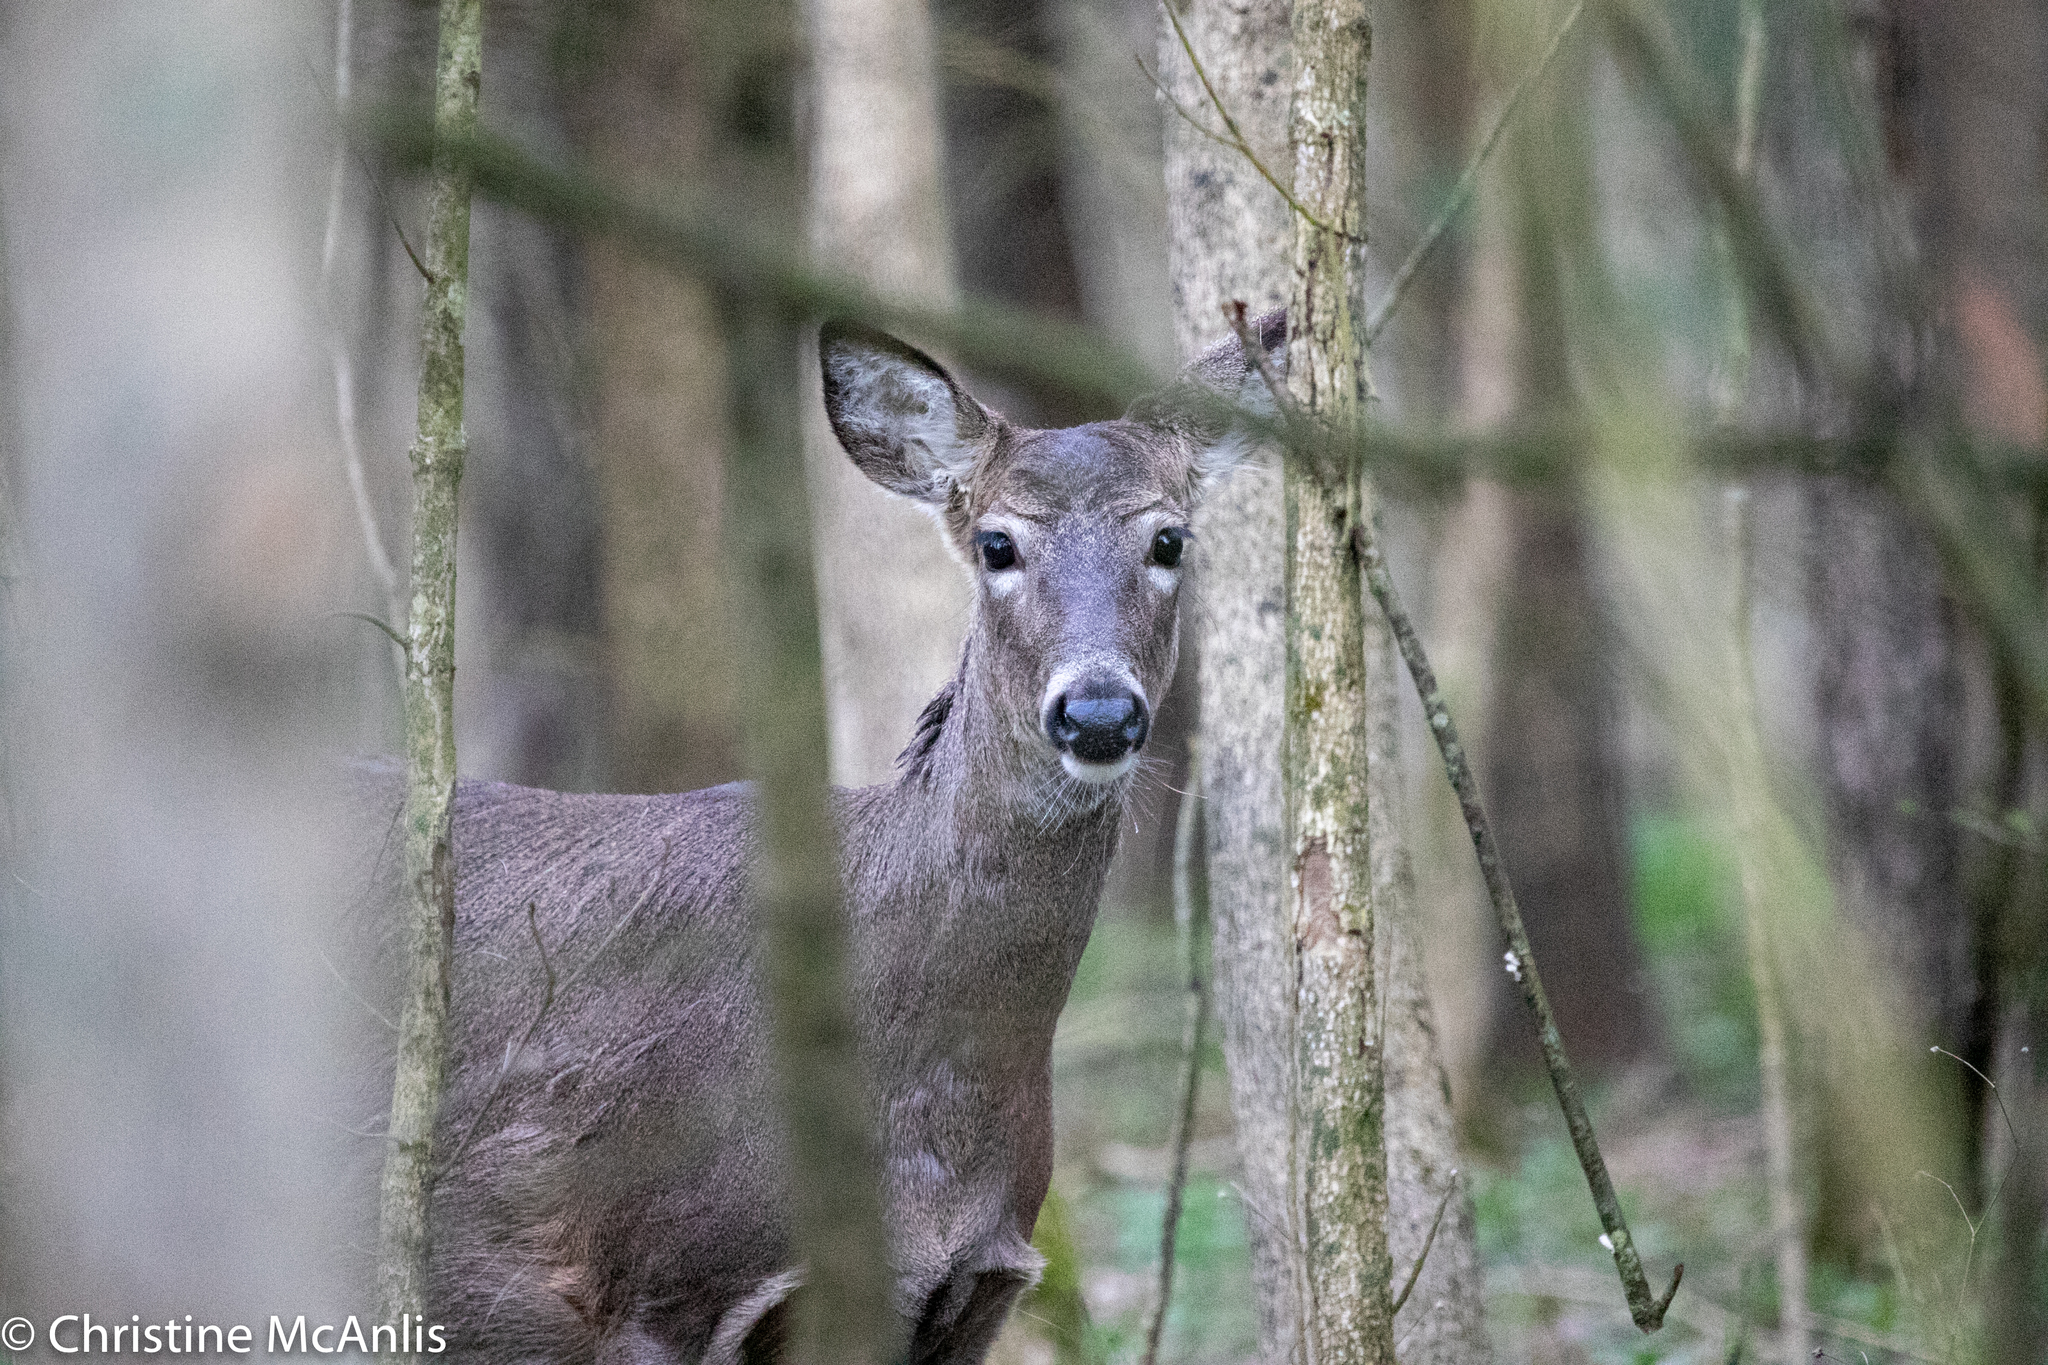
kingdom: Animalia
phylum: Chordata
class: Mammalia
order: Artiodactyla
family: Cervidae
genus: Odocoileus
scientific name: Odocoileus virginianus
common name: White-tailed deer
